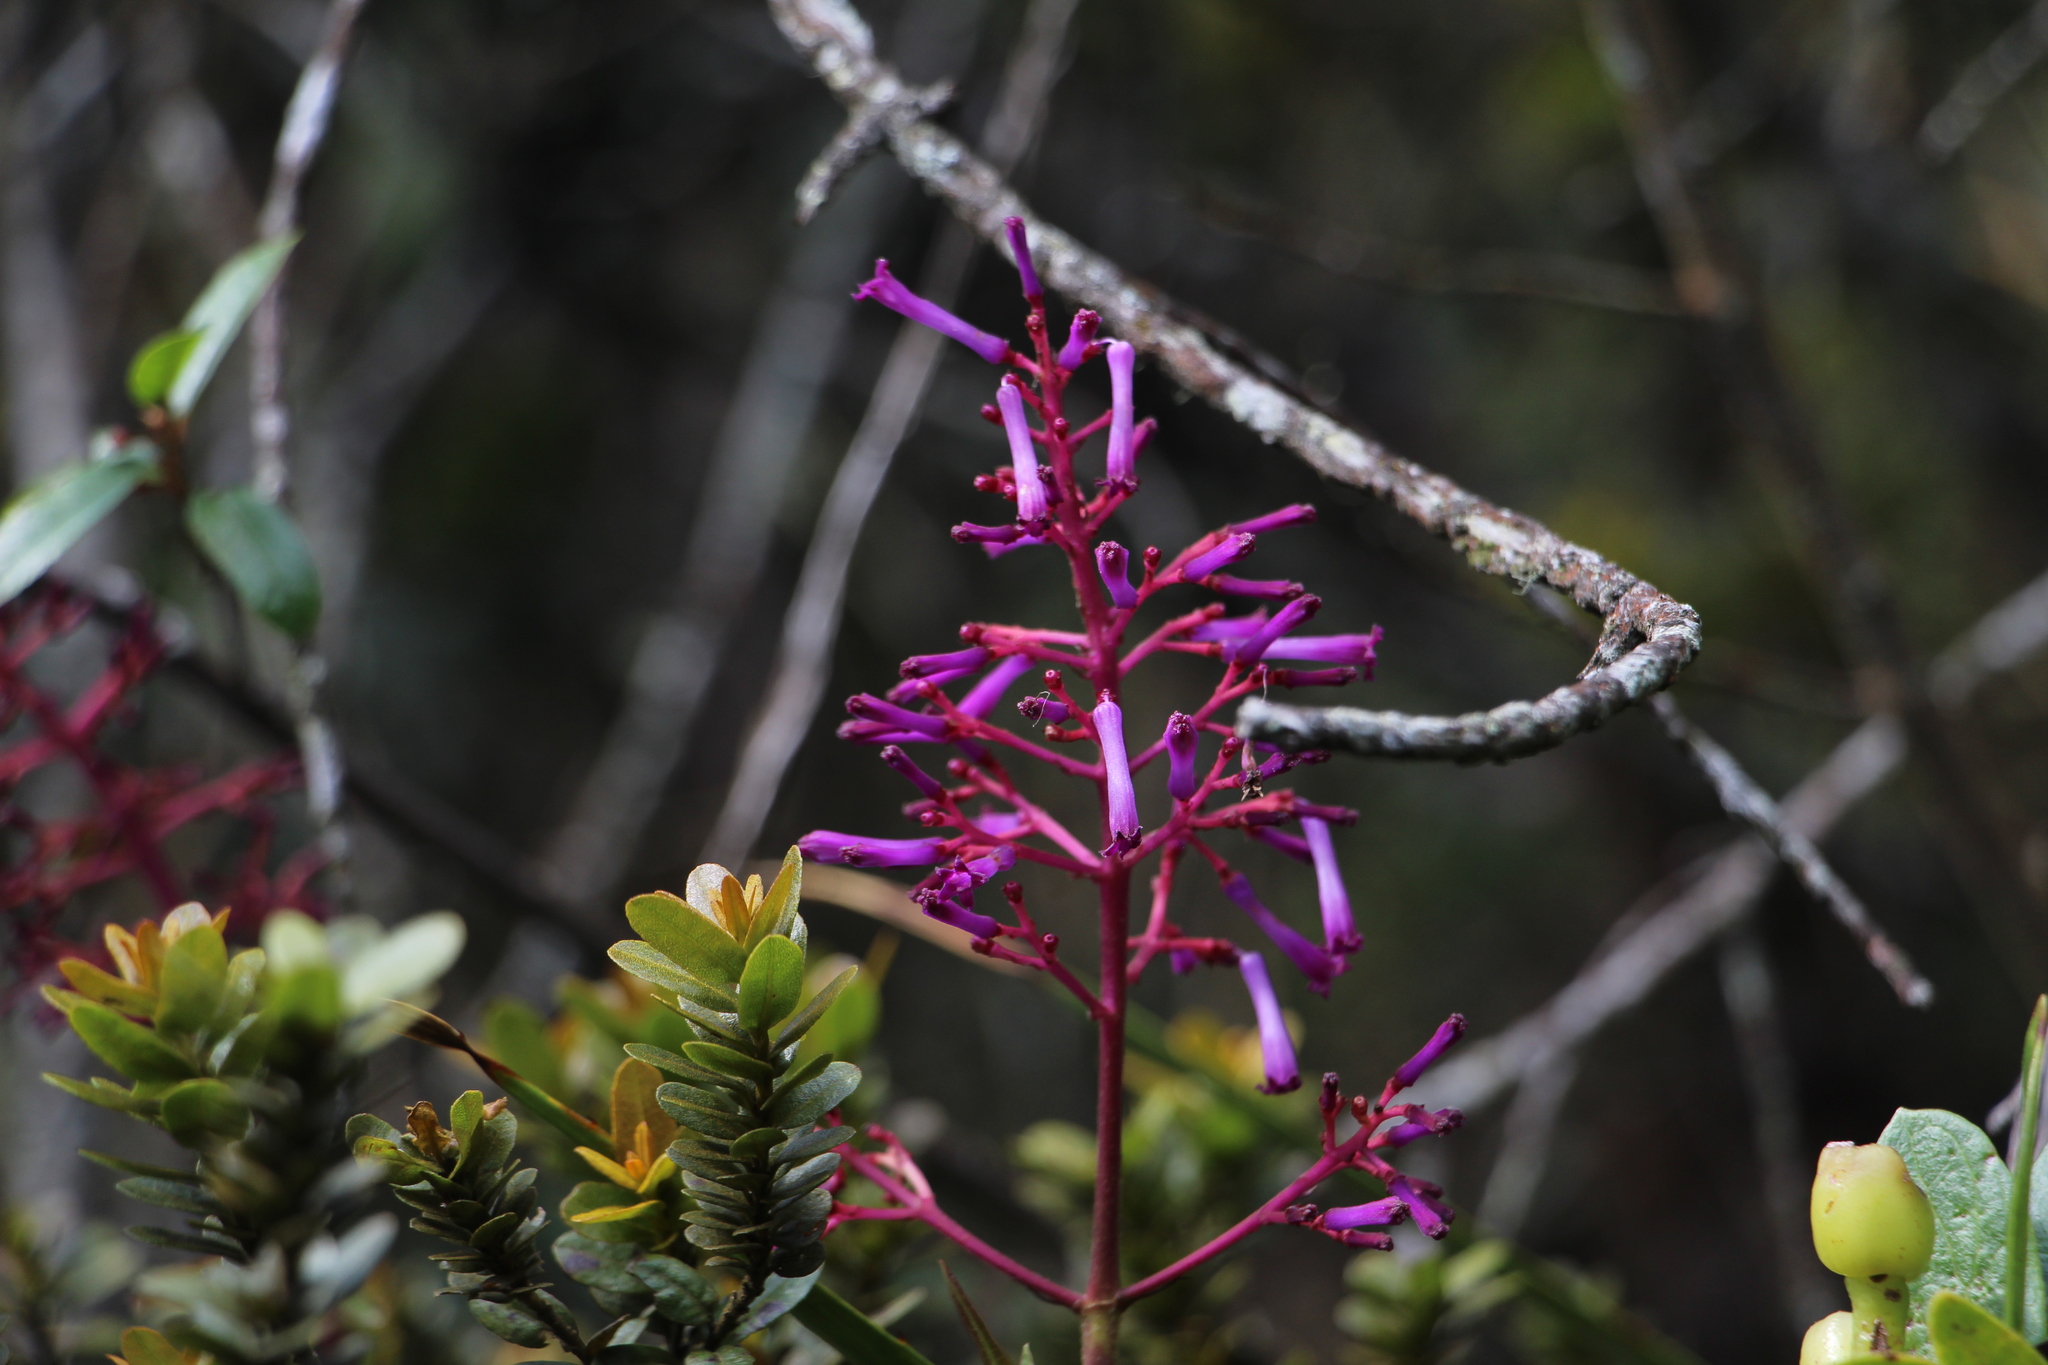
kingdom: Plantae
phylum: Tracheophyta
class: Magnoliopsida
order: Gentianales
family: Rubiaceae
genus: Palicourea
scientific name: Palicourea angustifolia
